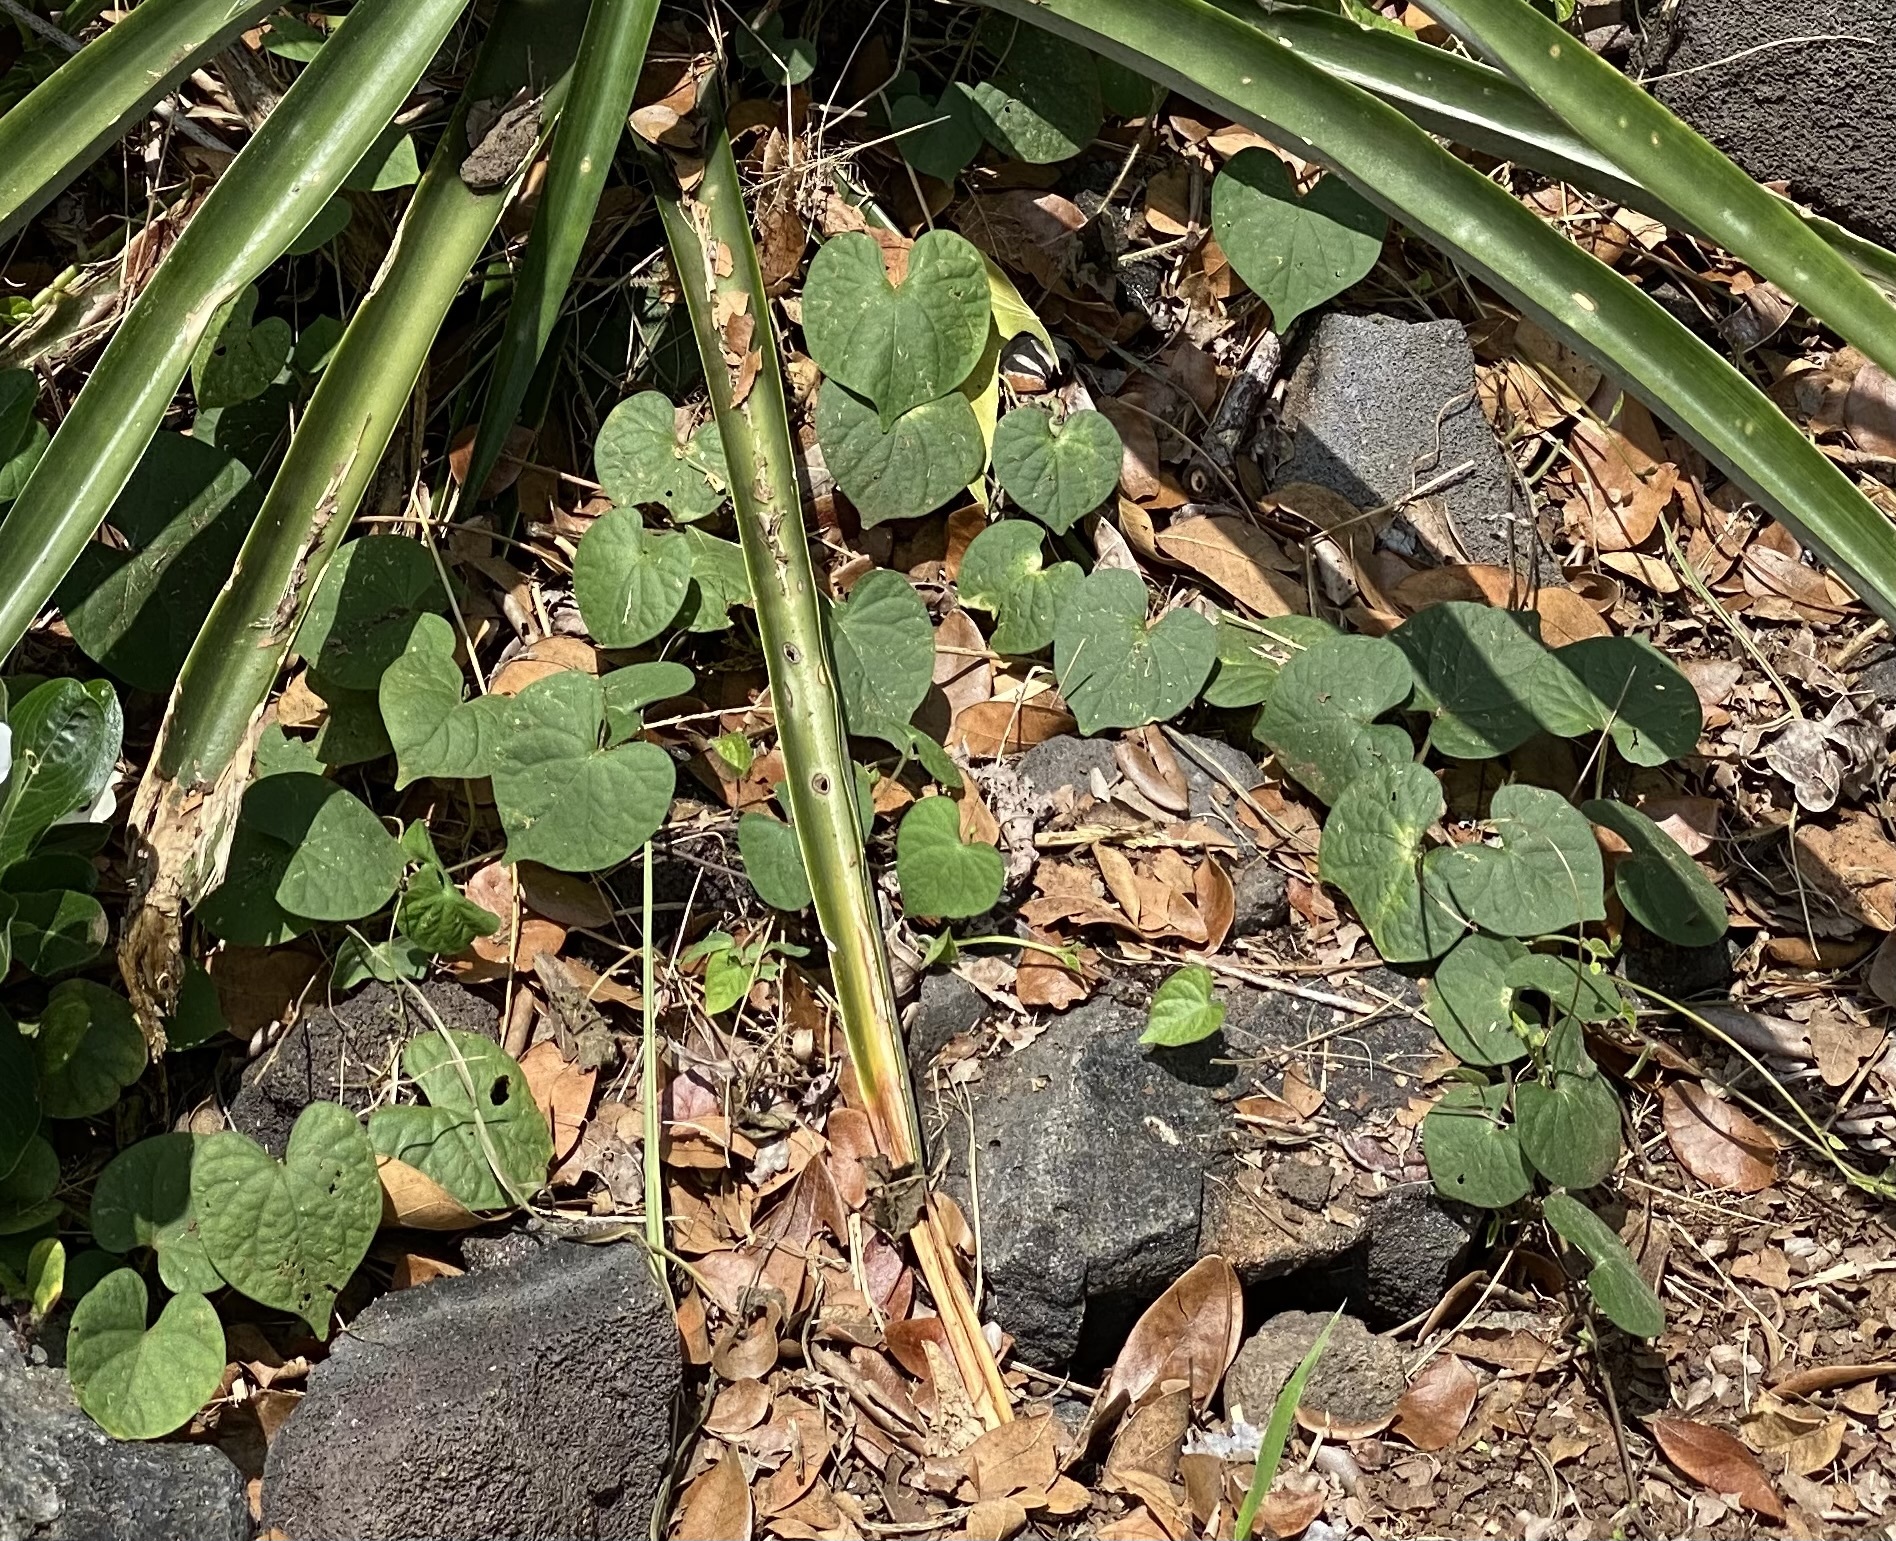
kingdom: Plantae
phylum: Tracheophyta
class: Magnoliopsida
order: Solanales
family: Convolvulaceae
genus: Ipomoea
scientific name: Ipomoea obscura
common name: Obscure morning-glory
